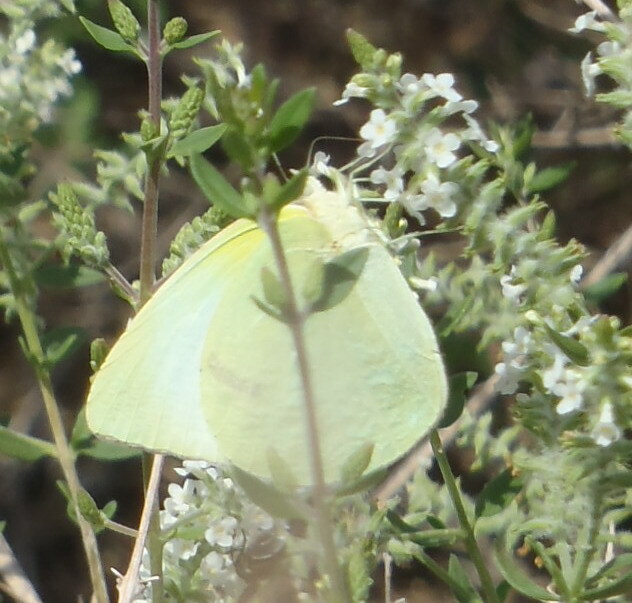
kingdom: Animalia
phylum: Arthropoda
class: Insecta
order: Lepidoptera
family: Pieridae
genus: Kricogonia
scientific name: Kricogonia lyside
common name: Guayacan sulphur,
